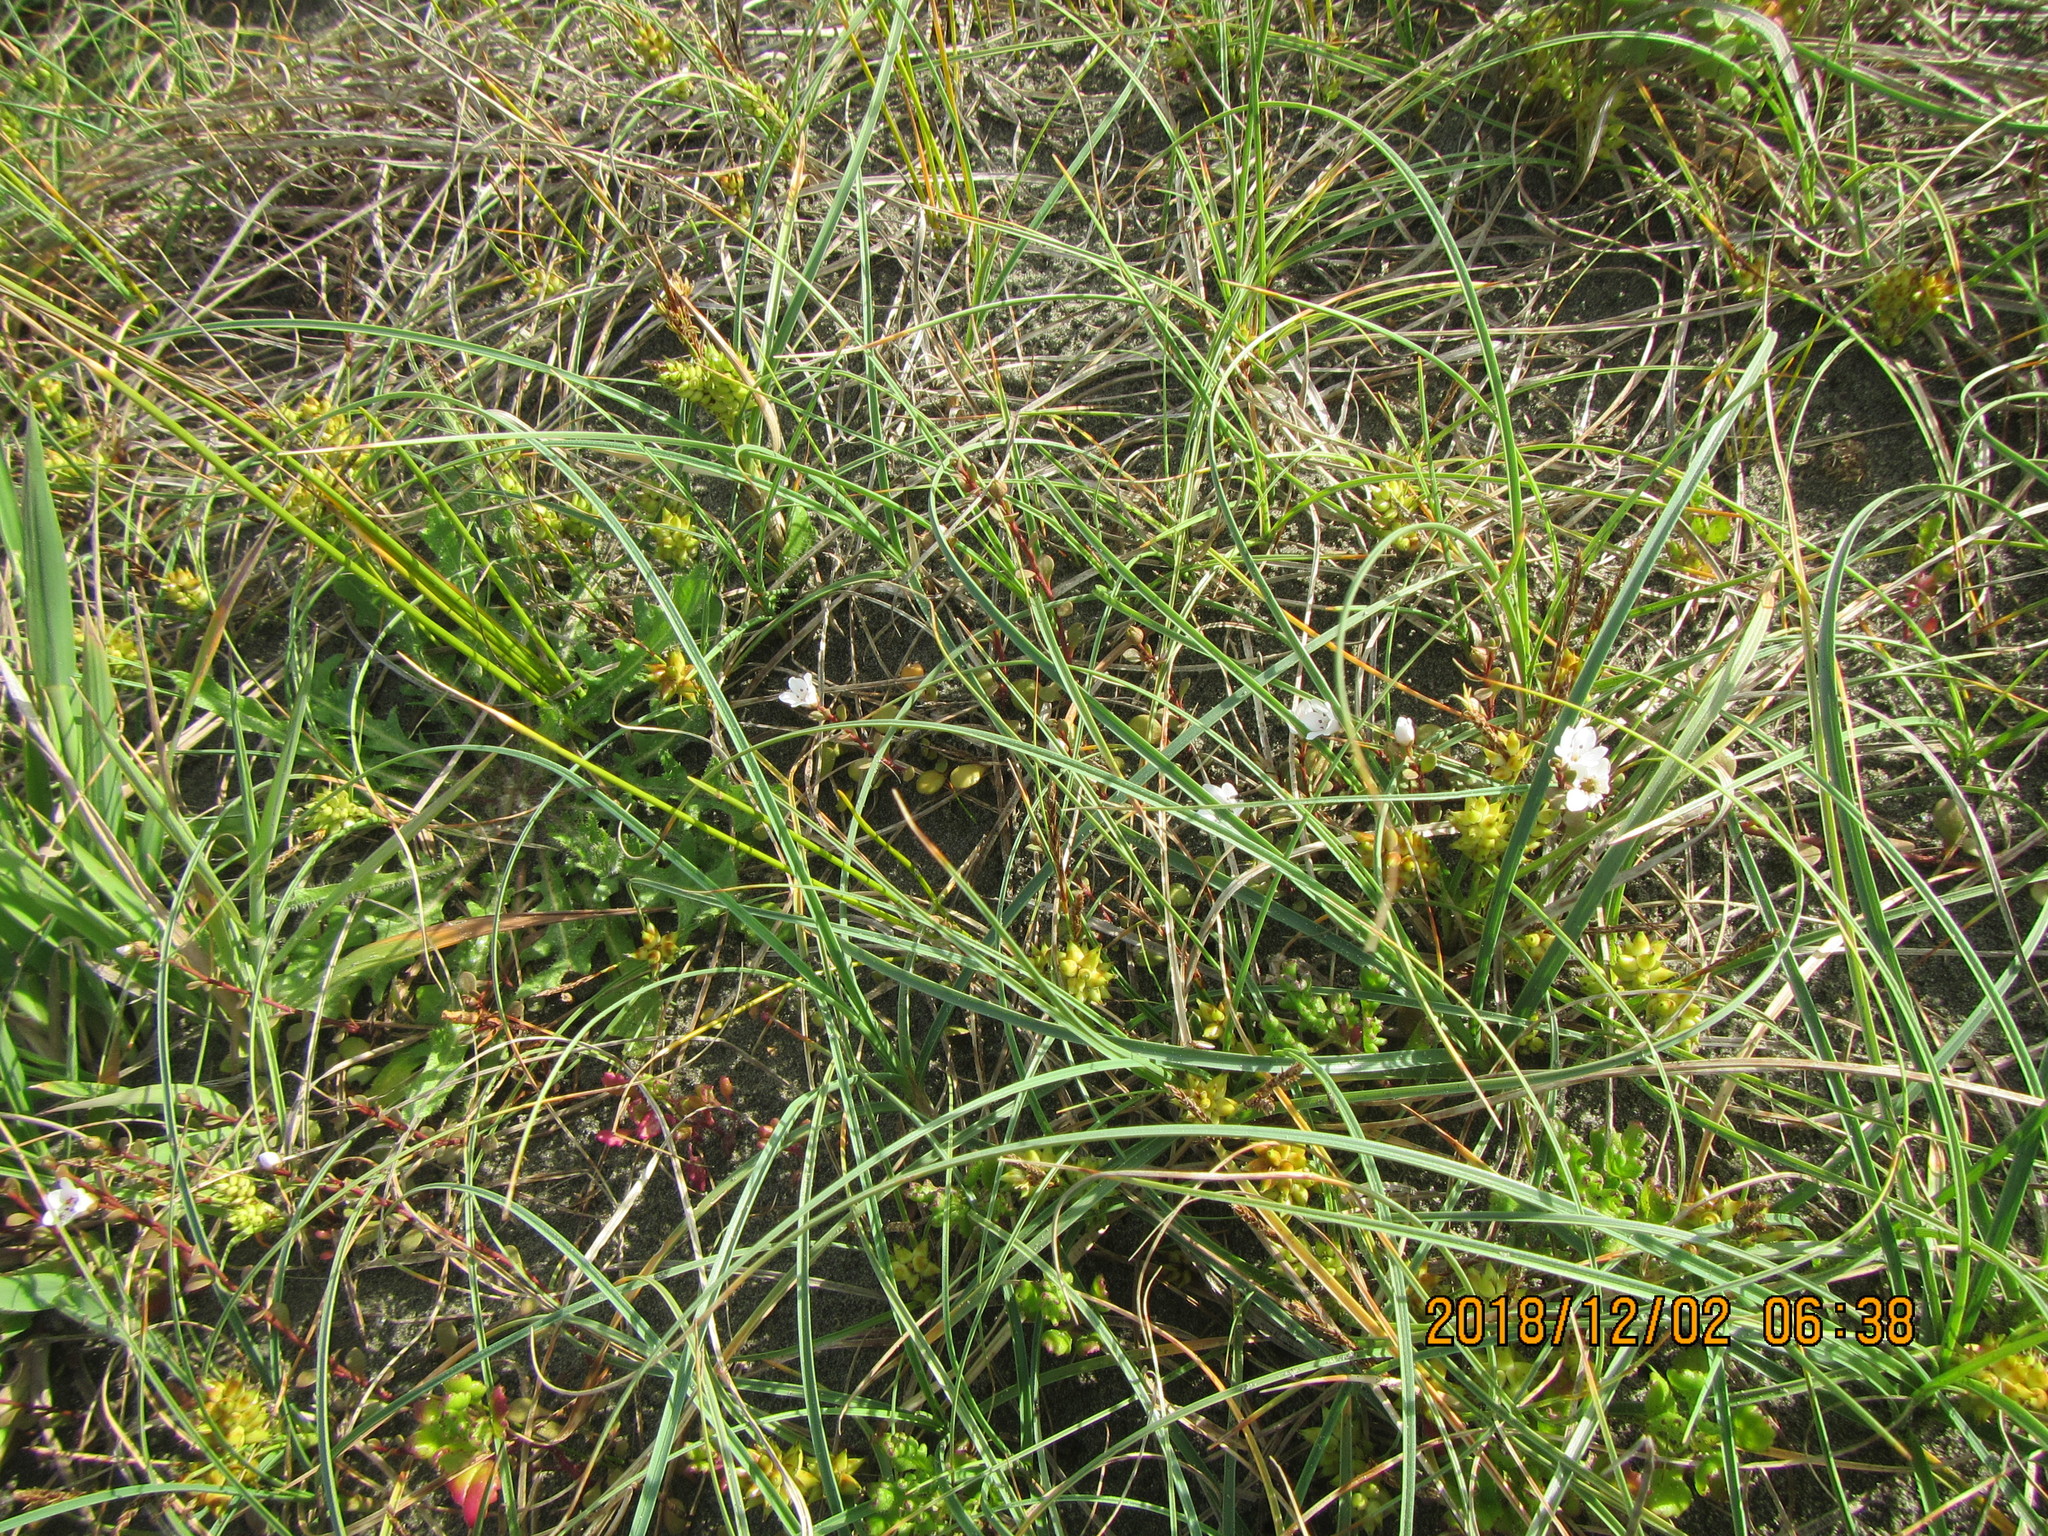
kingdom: Plantae
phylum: Tracheophyta
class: Magnoliopsida
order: Ericales
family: Primulaceae
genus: Samolus
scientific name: Samolus repens
